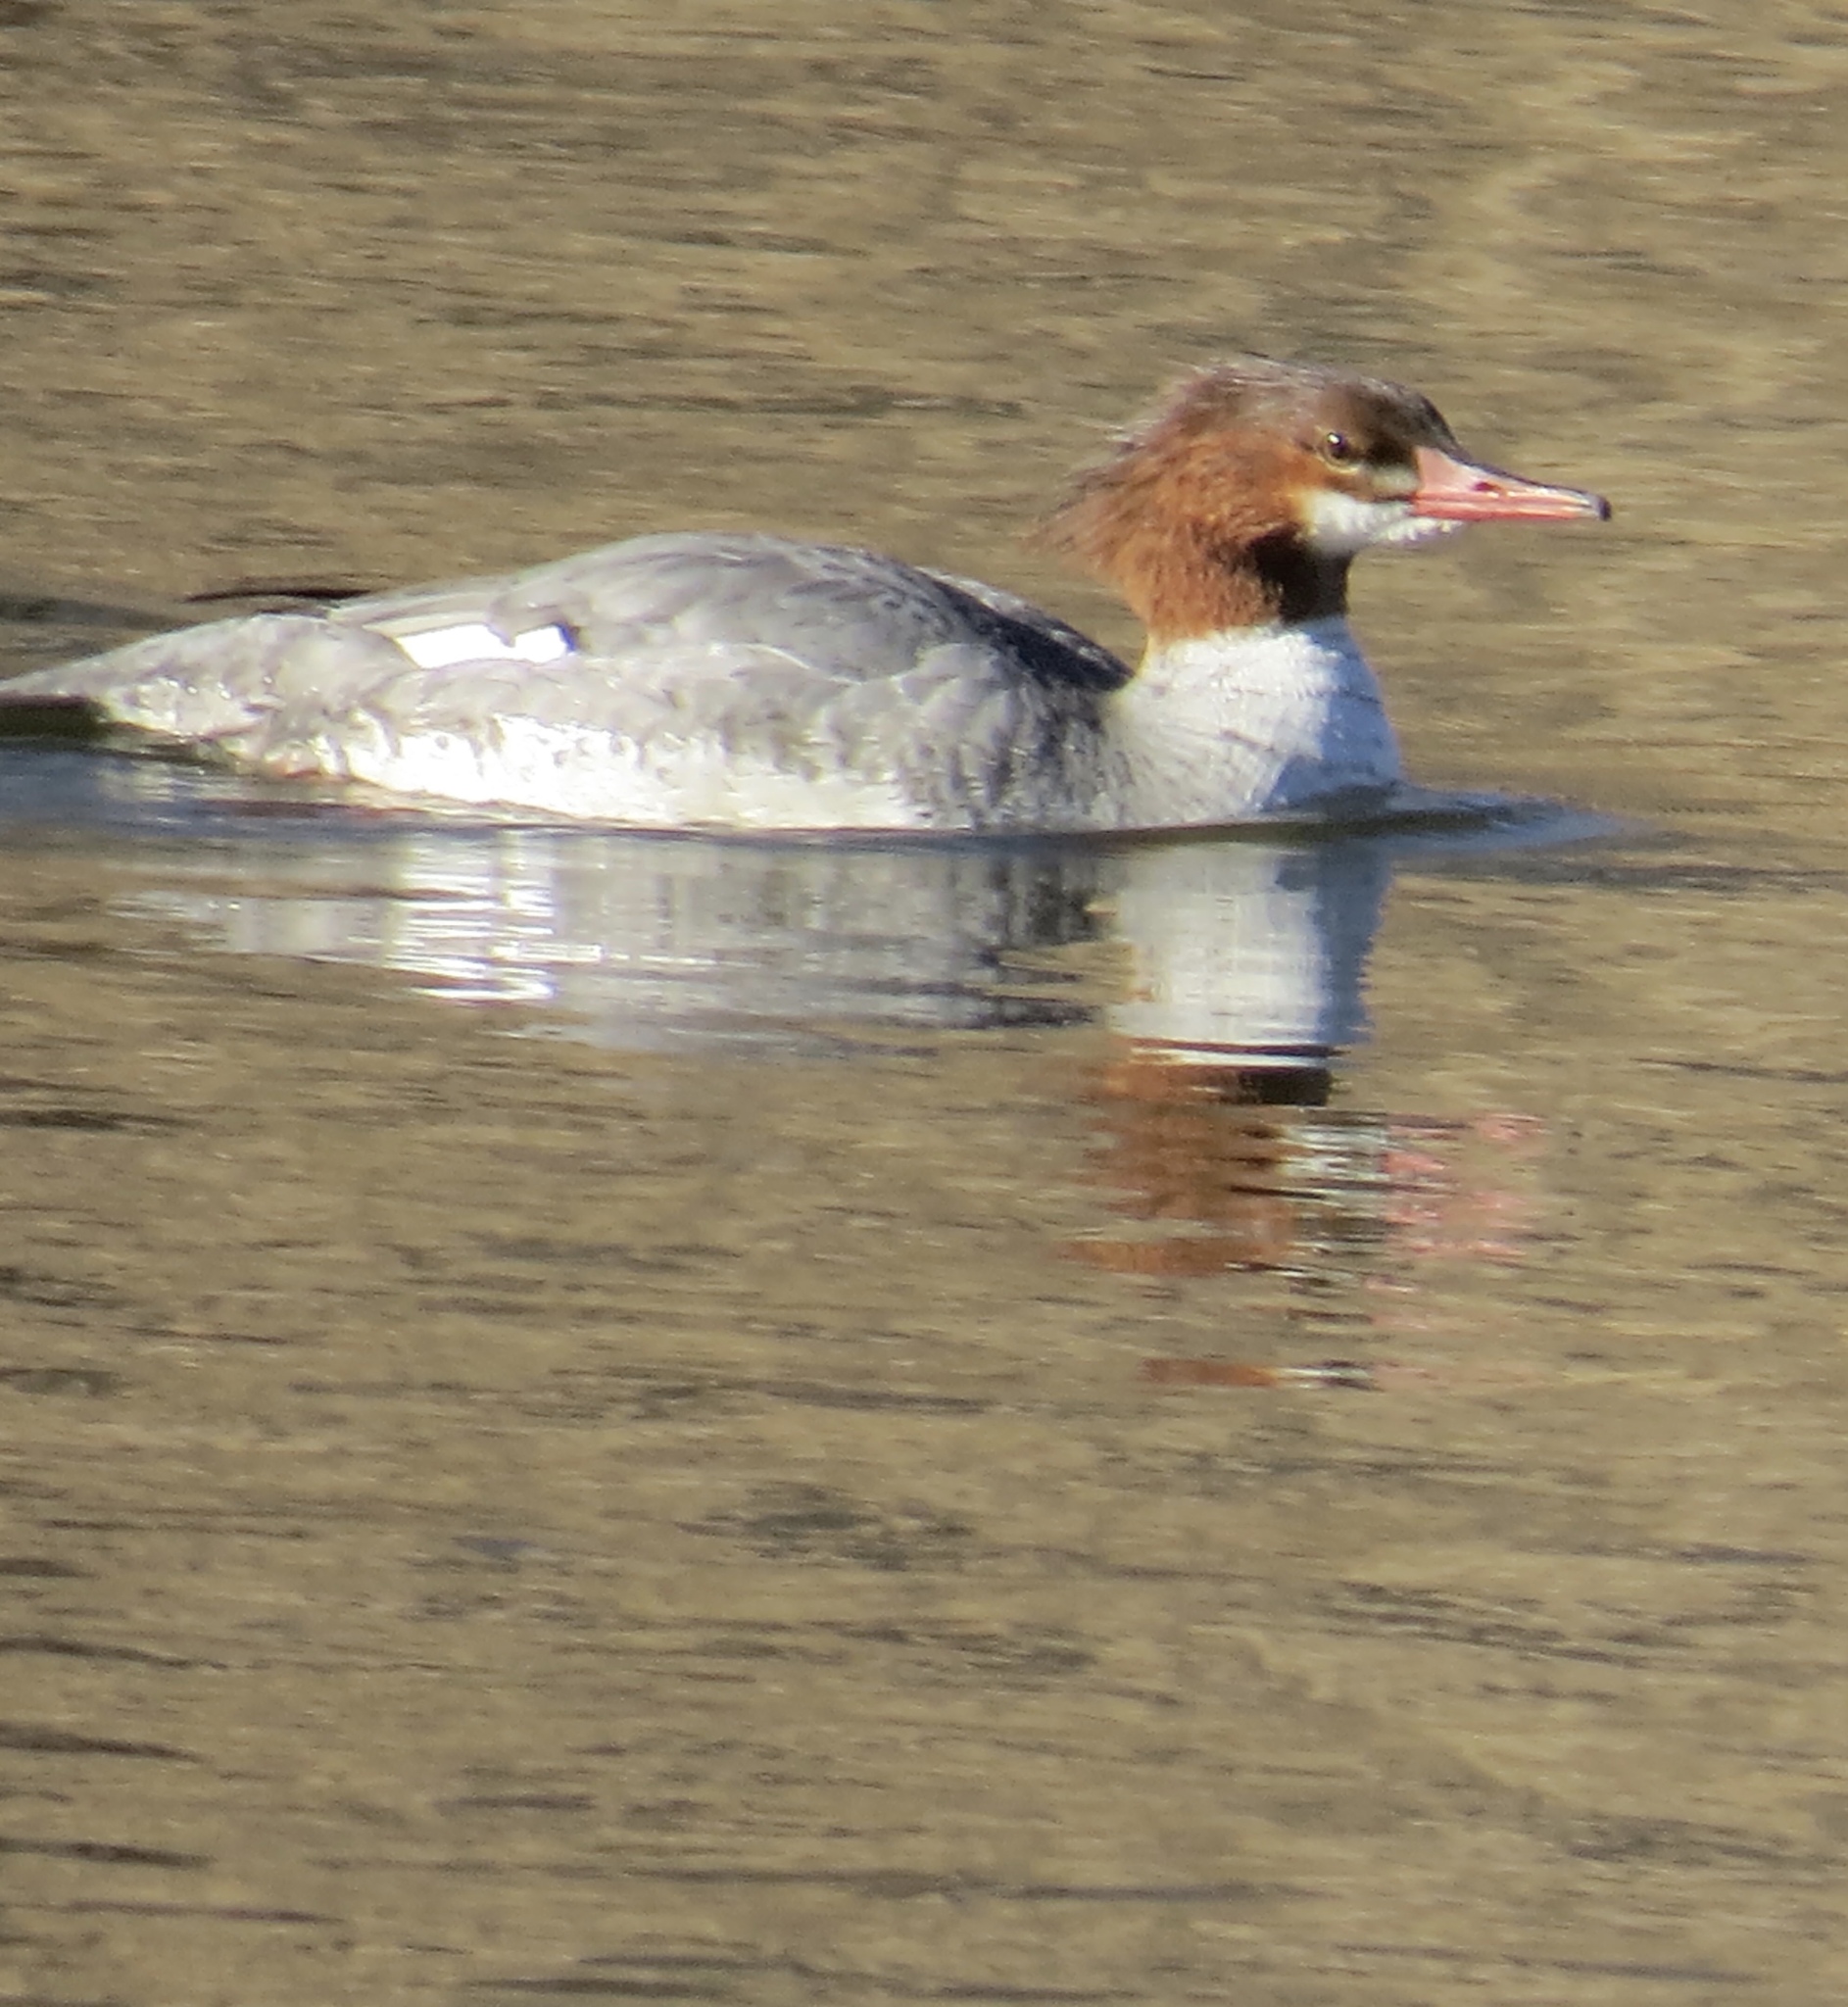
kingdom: Animalia
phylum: Chordata
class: Aves
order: Anseriformes
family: Anatidae
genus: Mergus
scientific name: Mergus merganser
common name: Common merganser
